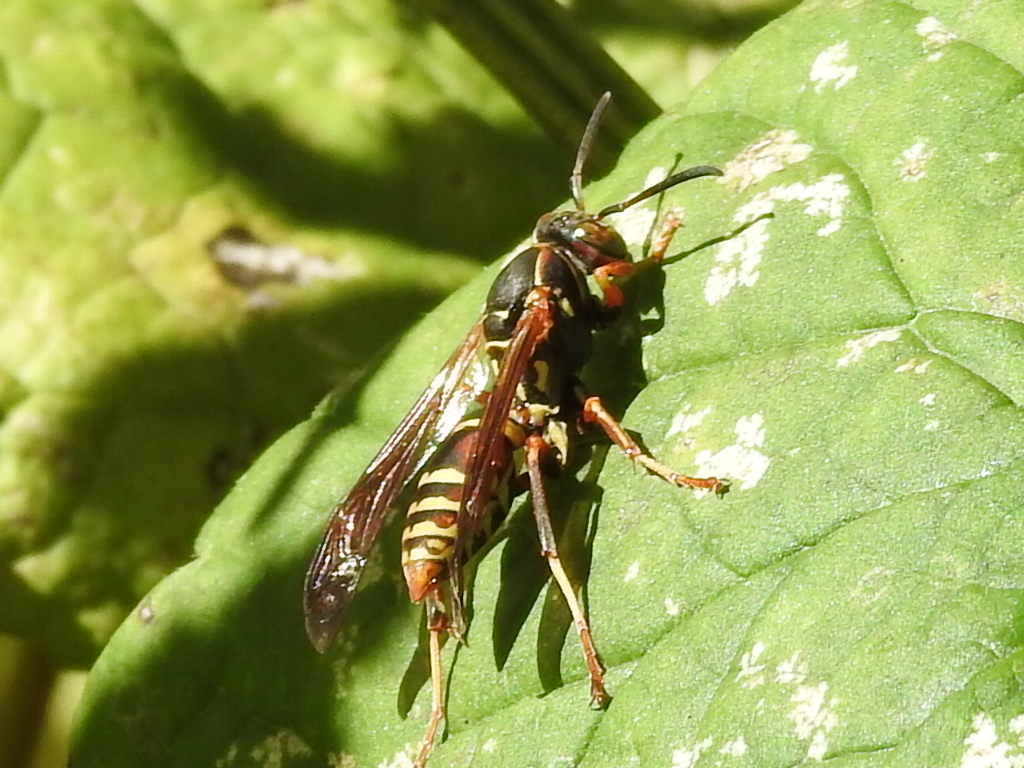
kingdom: Animalia
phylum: Arthropoda
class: Insecta
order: Hymenoptera
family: Eumenidae
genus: Polistes
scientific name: Polistes fuscatus
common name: Dark paper wasp
